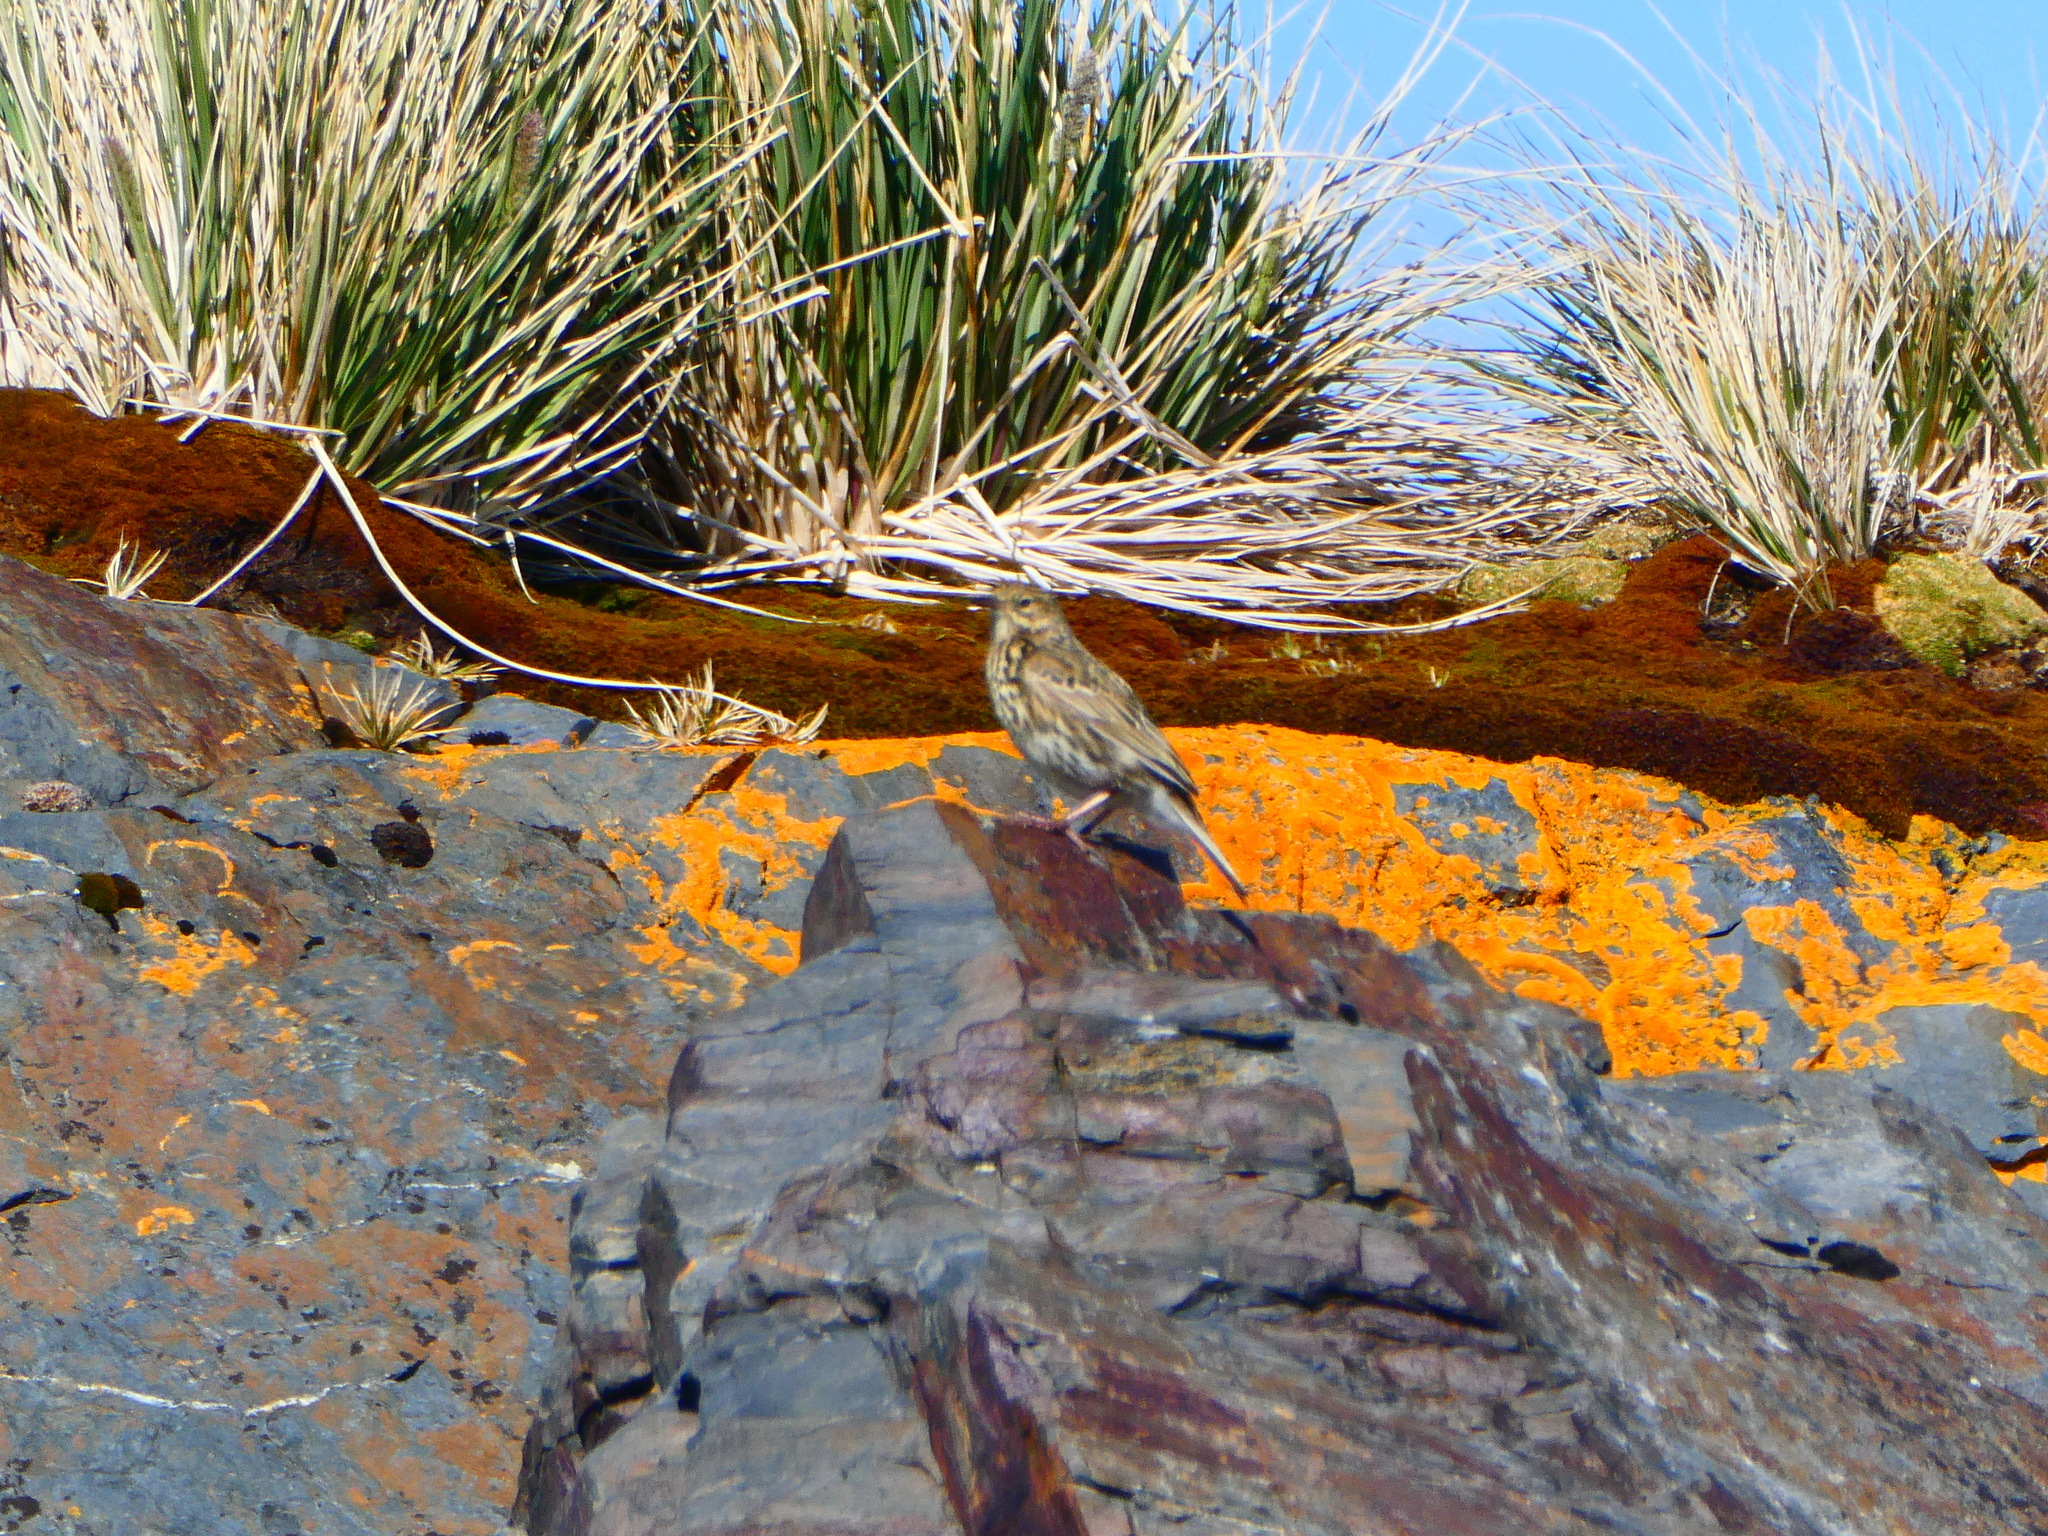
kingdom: Animalia
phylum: Chordata
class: Aves
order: Passeriformes
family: Motacillidae
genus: Anthus
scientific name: Anthus antarcticus
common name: South georgia pipit
